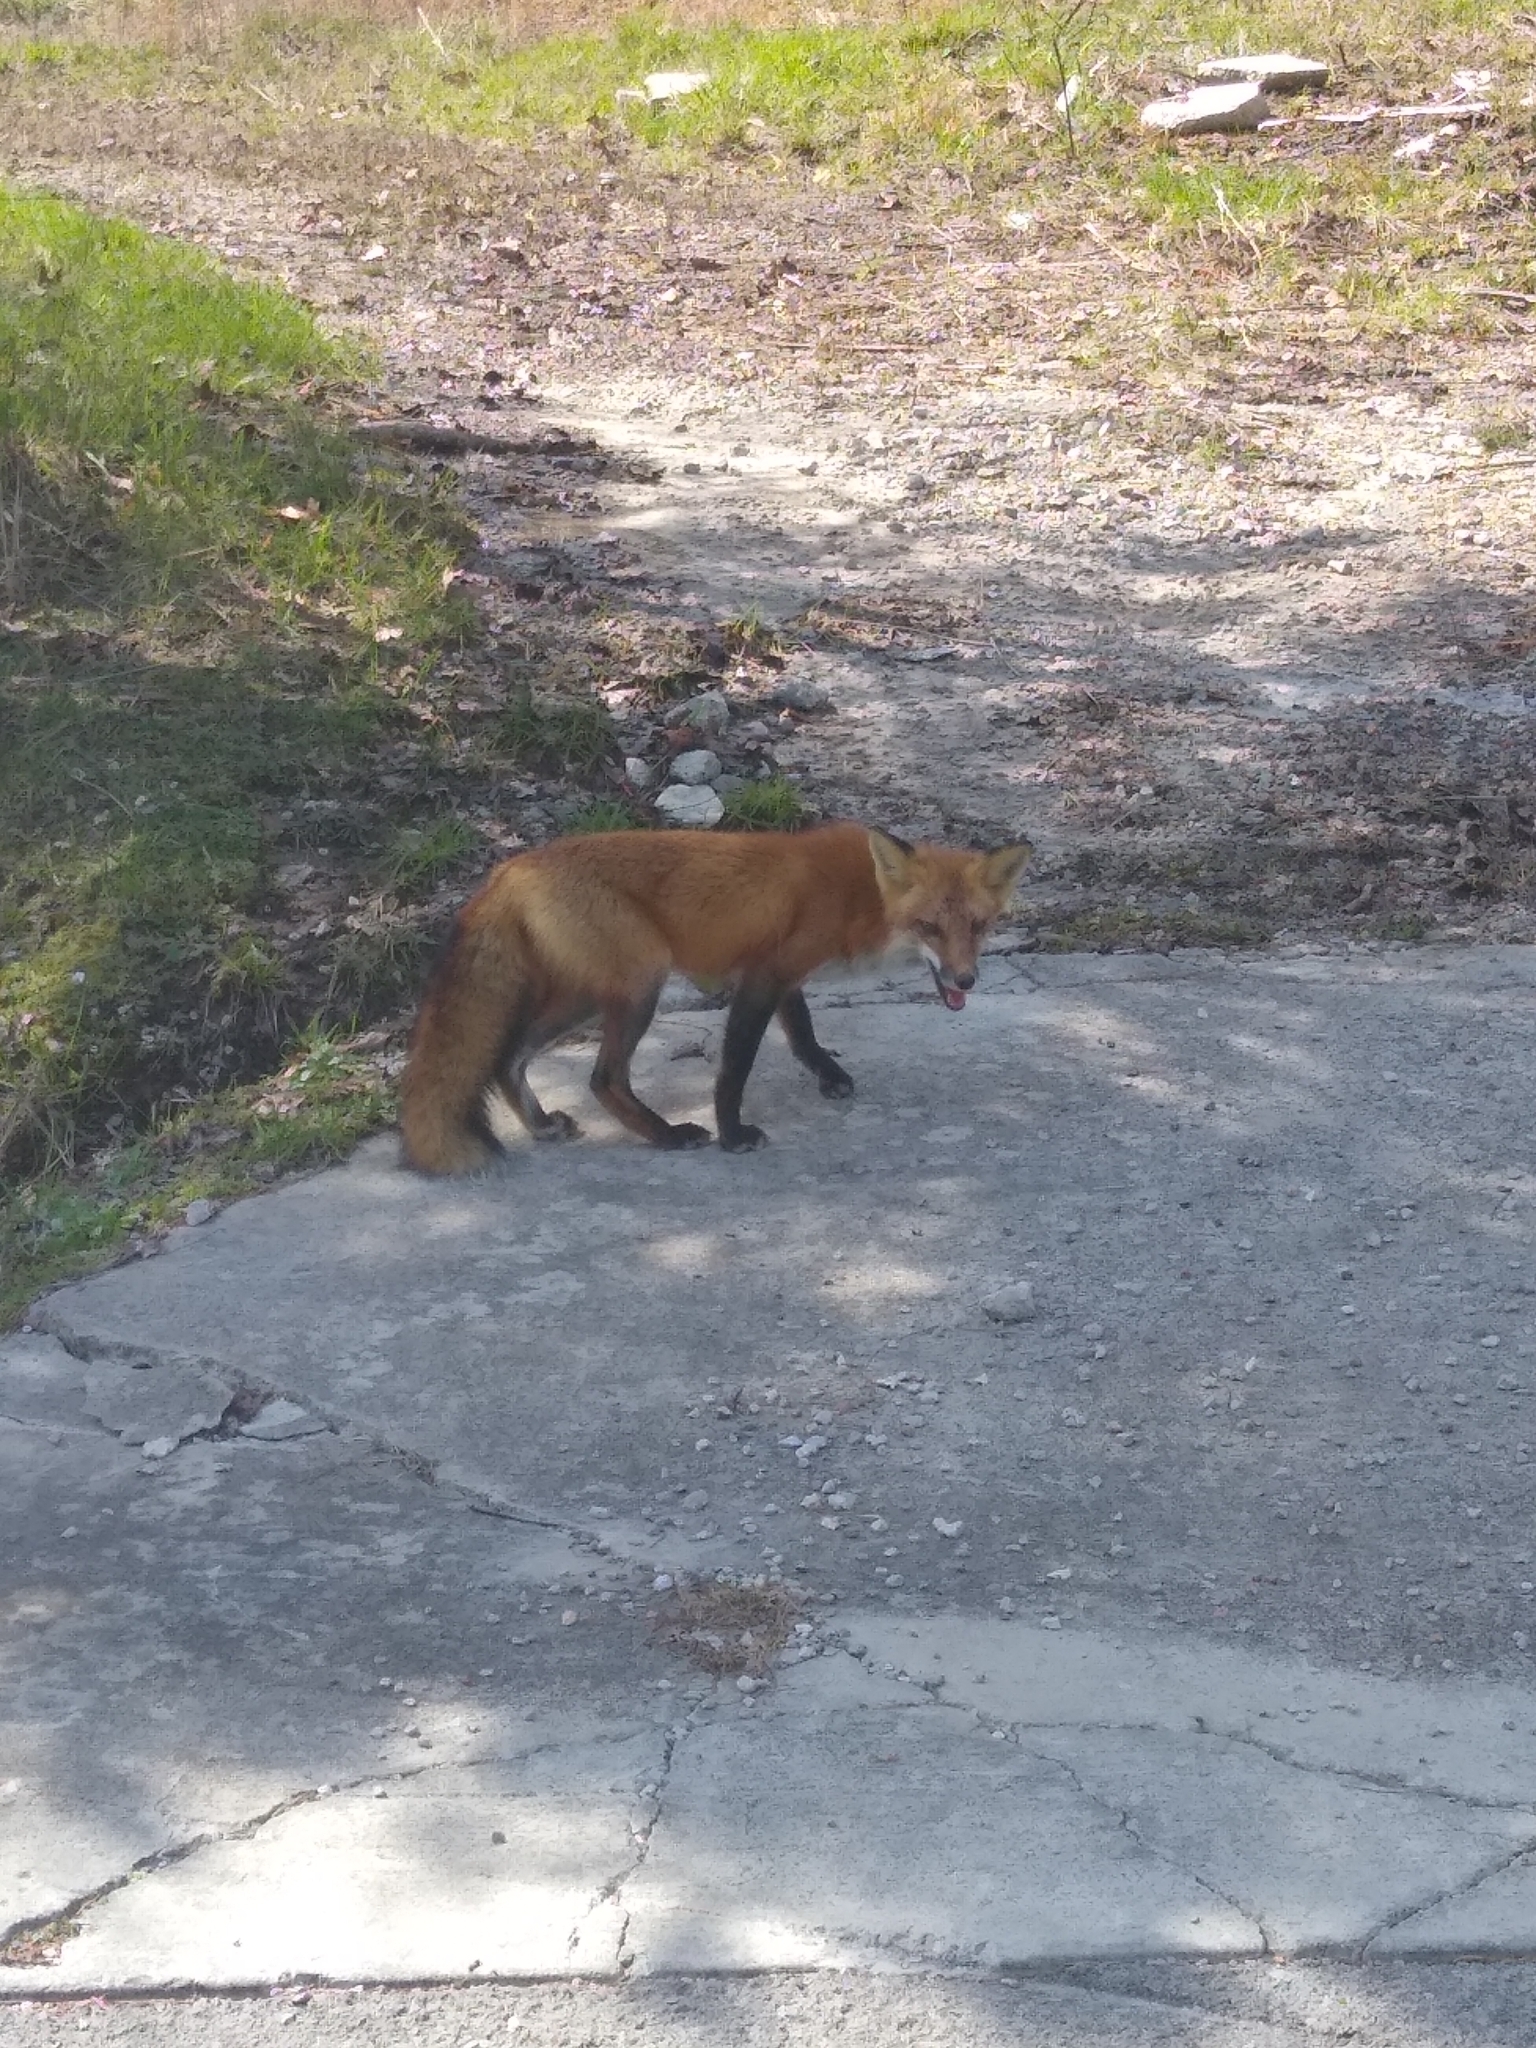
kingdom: Animalia
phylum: Chordata
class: Mammalia
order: Carnivora
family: Canidae
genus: Vulpes
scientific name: Vulpes vulpes
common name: Red fox
